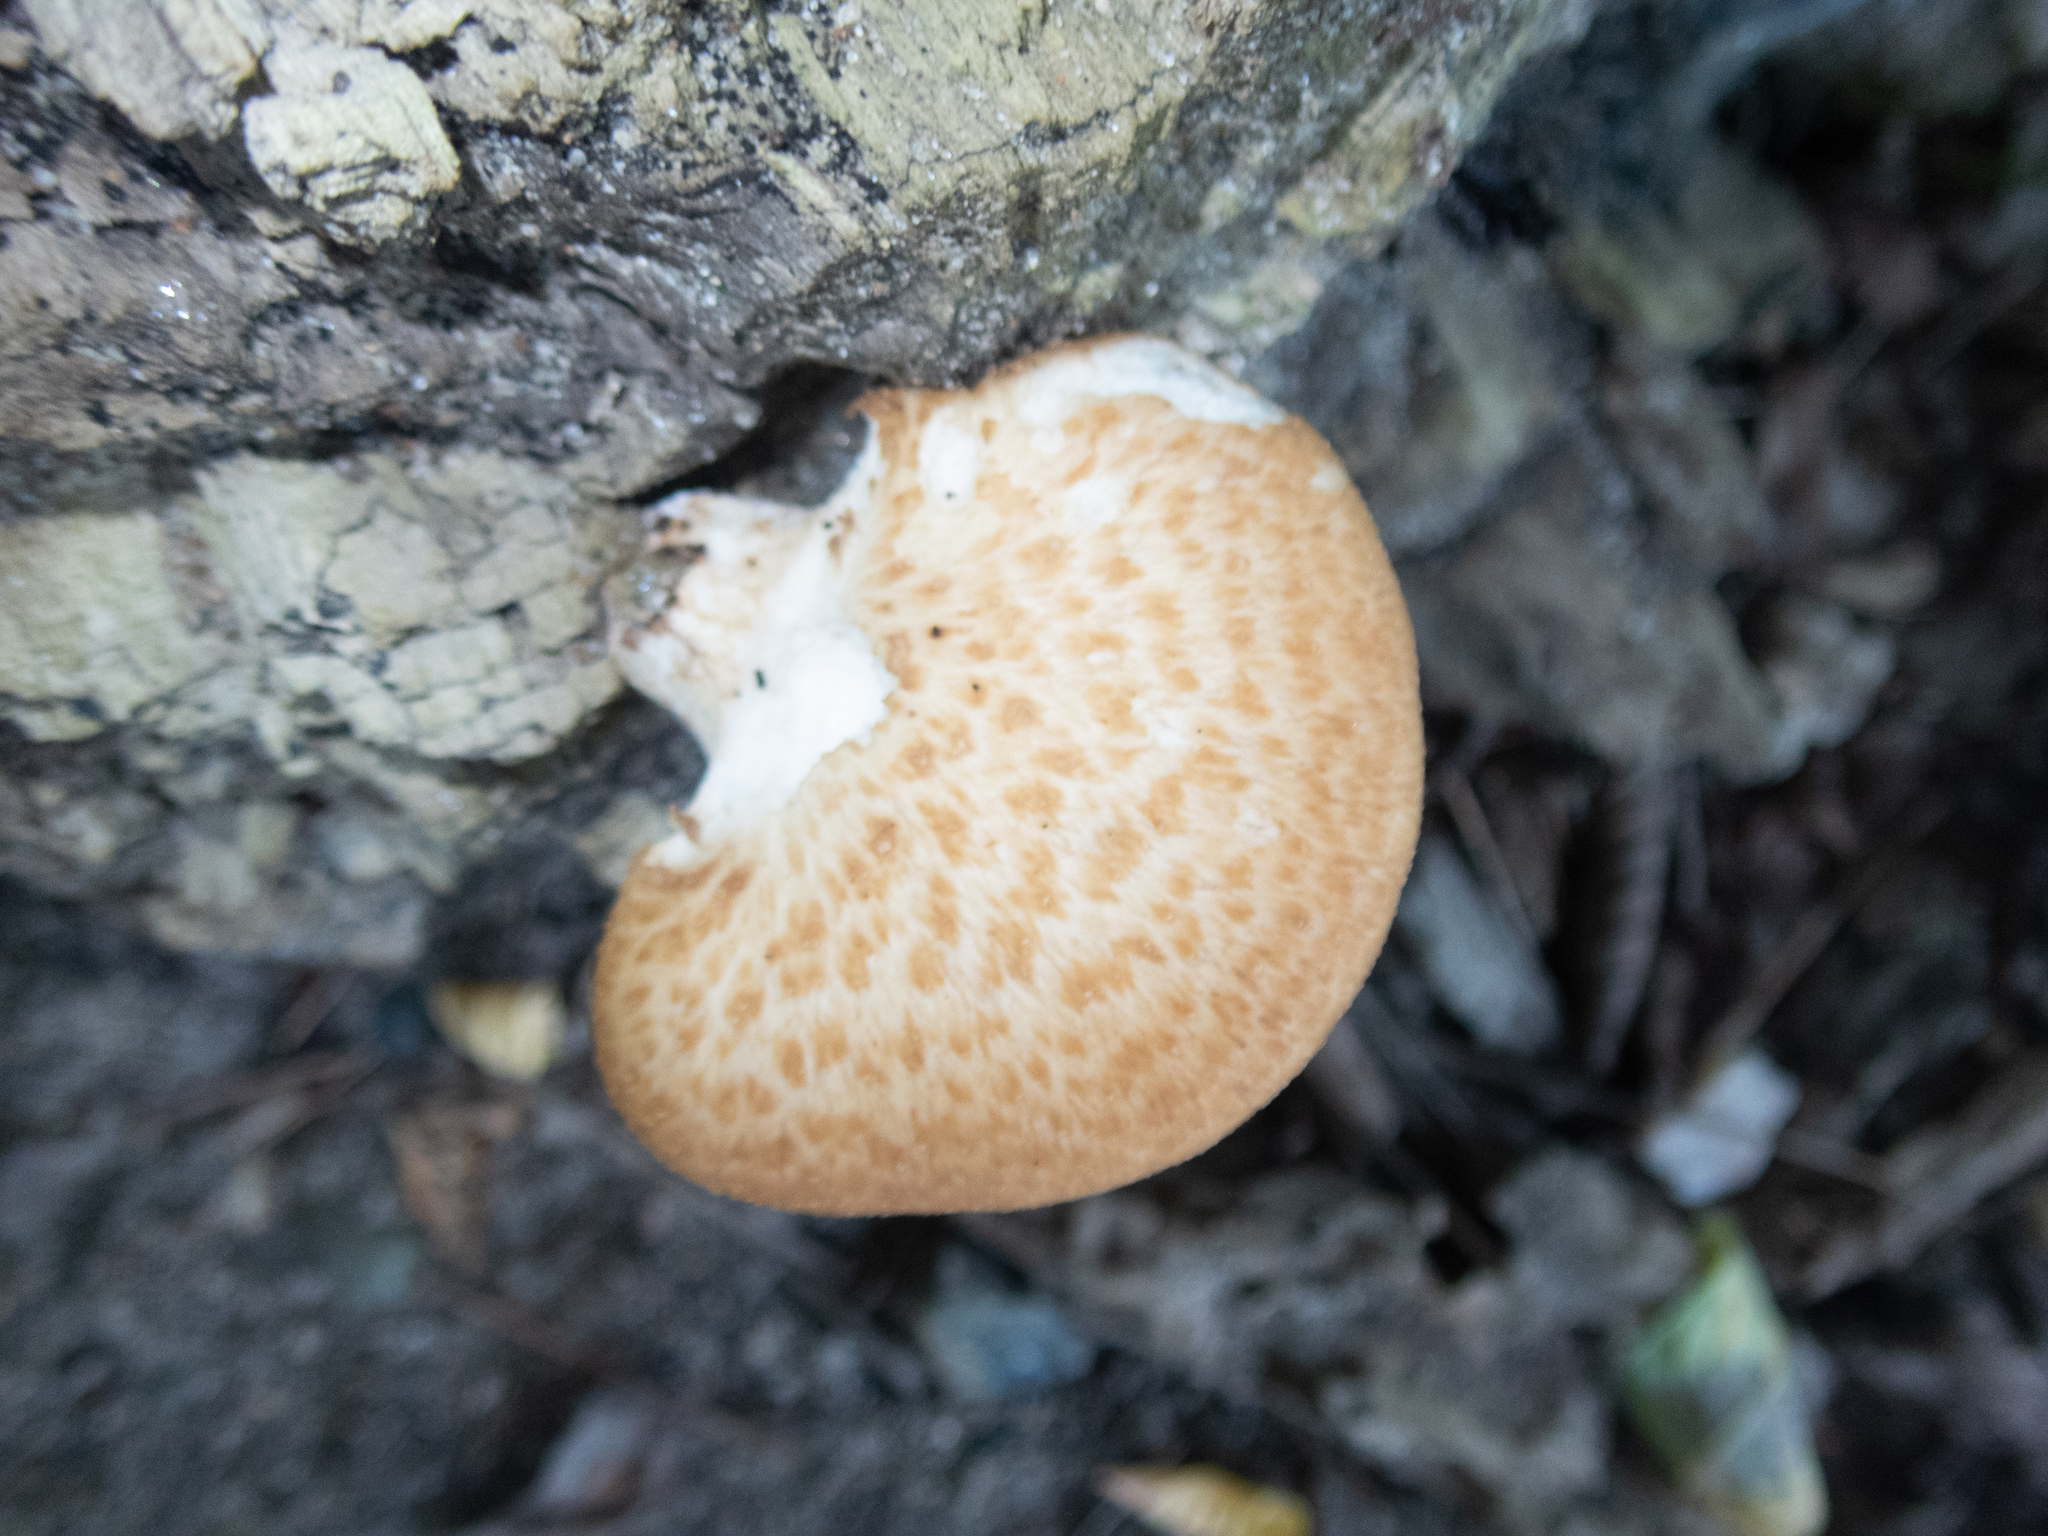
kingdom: Fungi
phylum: Basidiomycota
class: Agaricomycetes
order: Polyporales
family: Polyporaceae
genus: Neofavolus
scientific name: Neofavolus americanus
